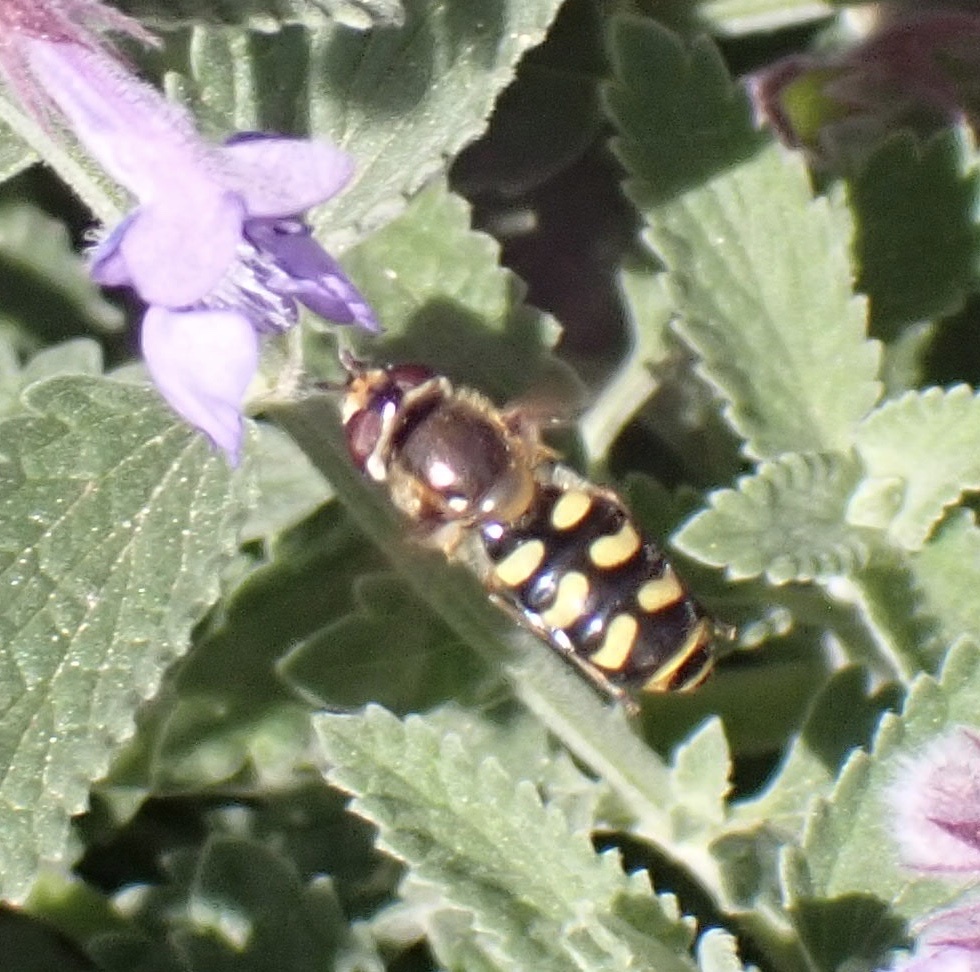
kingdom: Animalia
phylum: Arthropoda
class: Insecta
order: Diptera
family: Syrphidae
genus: Eupeodes
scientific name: Eupeodes luniger
